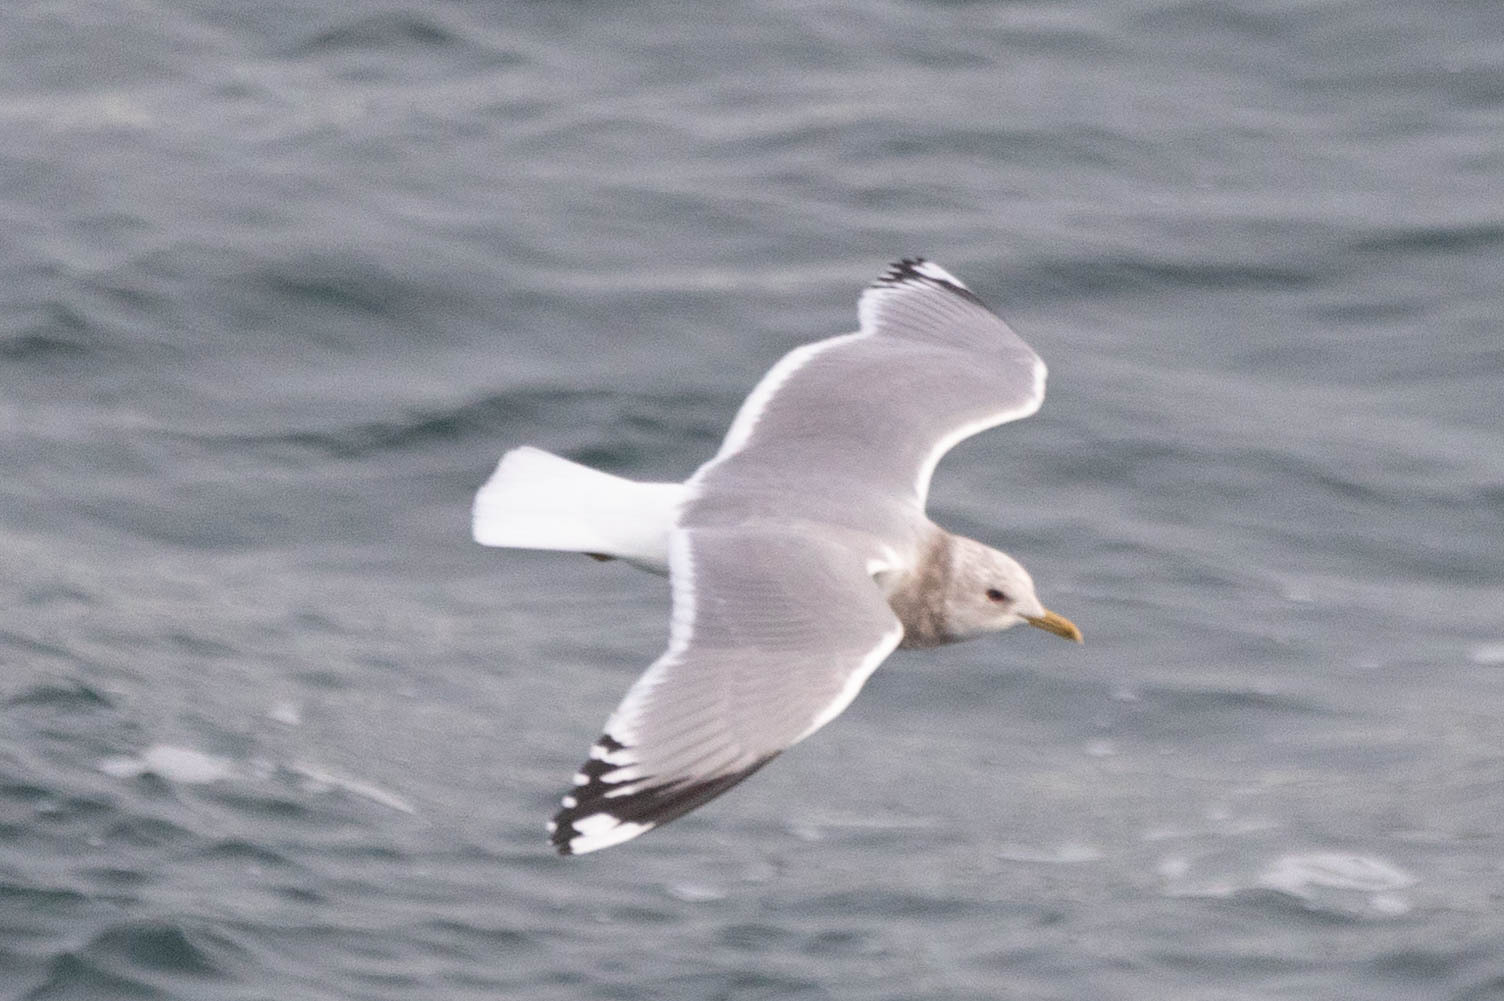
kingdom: Animalia
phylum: Chordata
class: Aves
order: Charadriiformes
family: Laridae
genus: Larus
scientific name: Larus brachyrhynchus
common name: Short-billed gull
